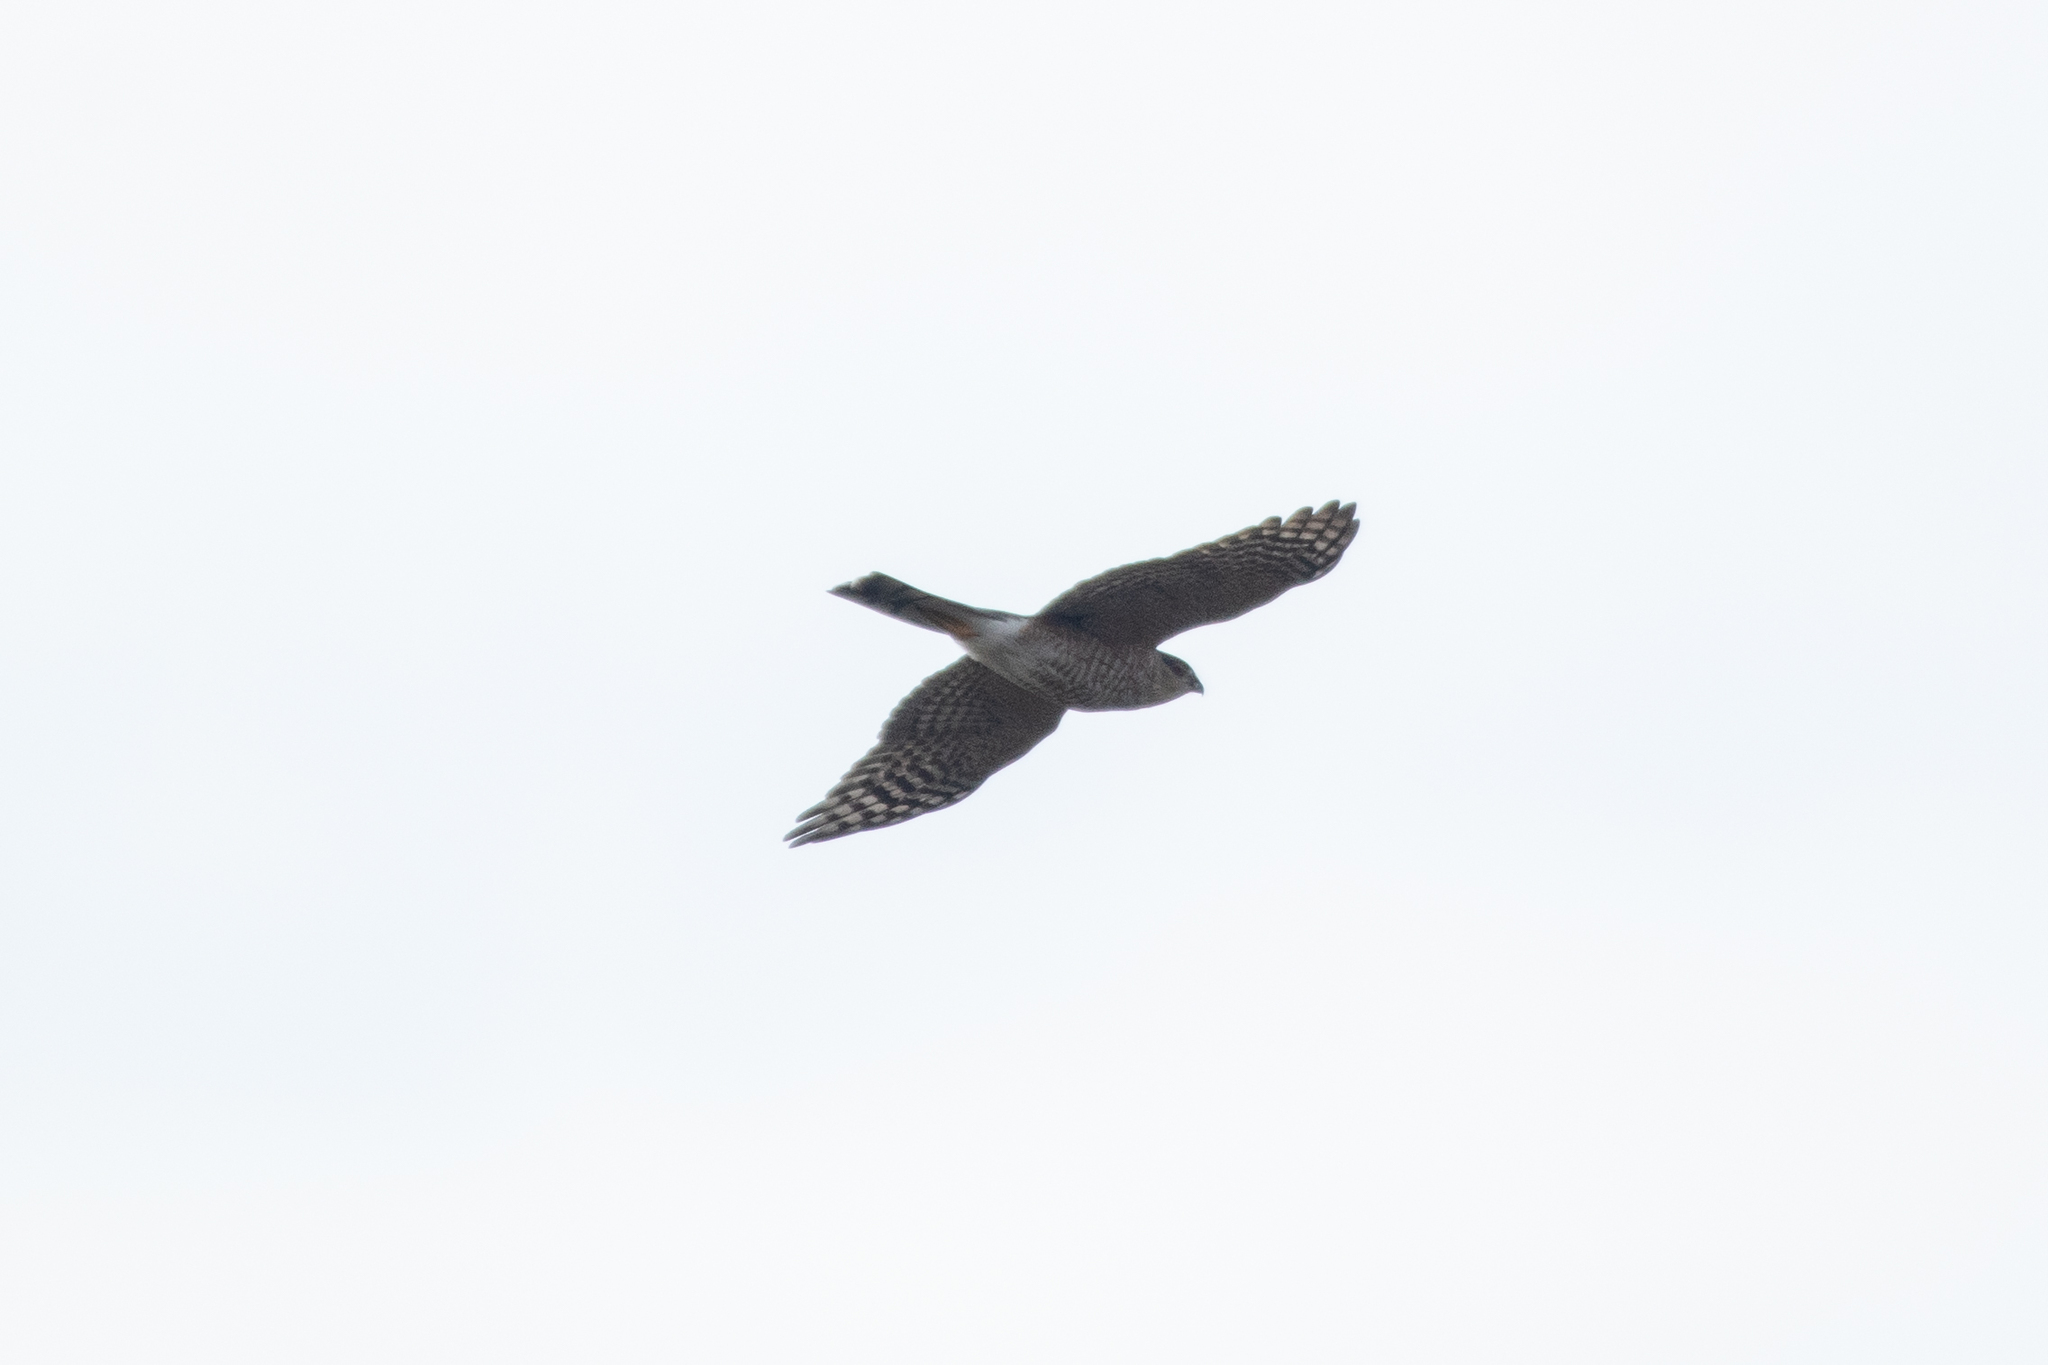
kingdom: Animalia
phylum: Chordata
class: Aves
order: Accipitriformes
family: Accipitridae
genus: Accipiter
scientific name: Accipiter striatus
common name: Sharp-shinned hawk
